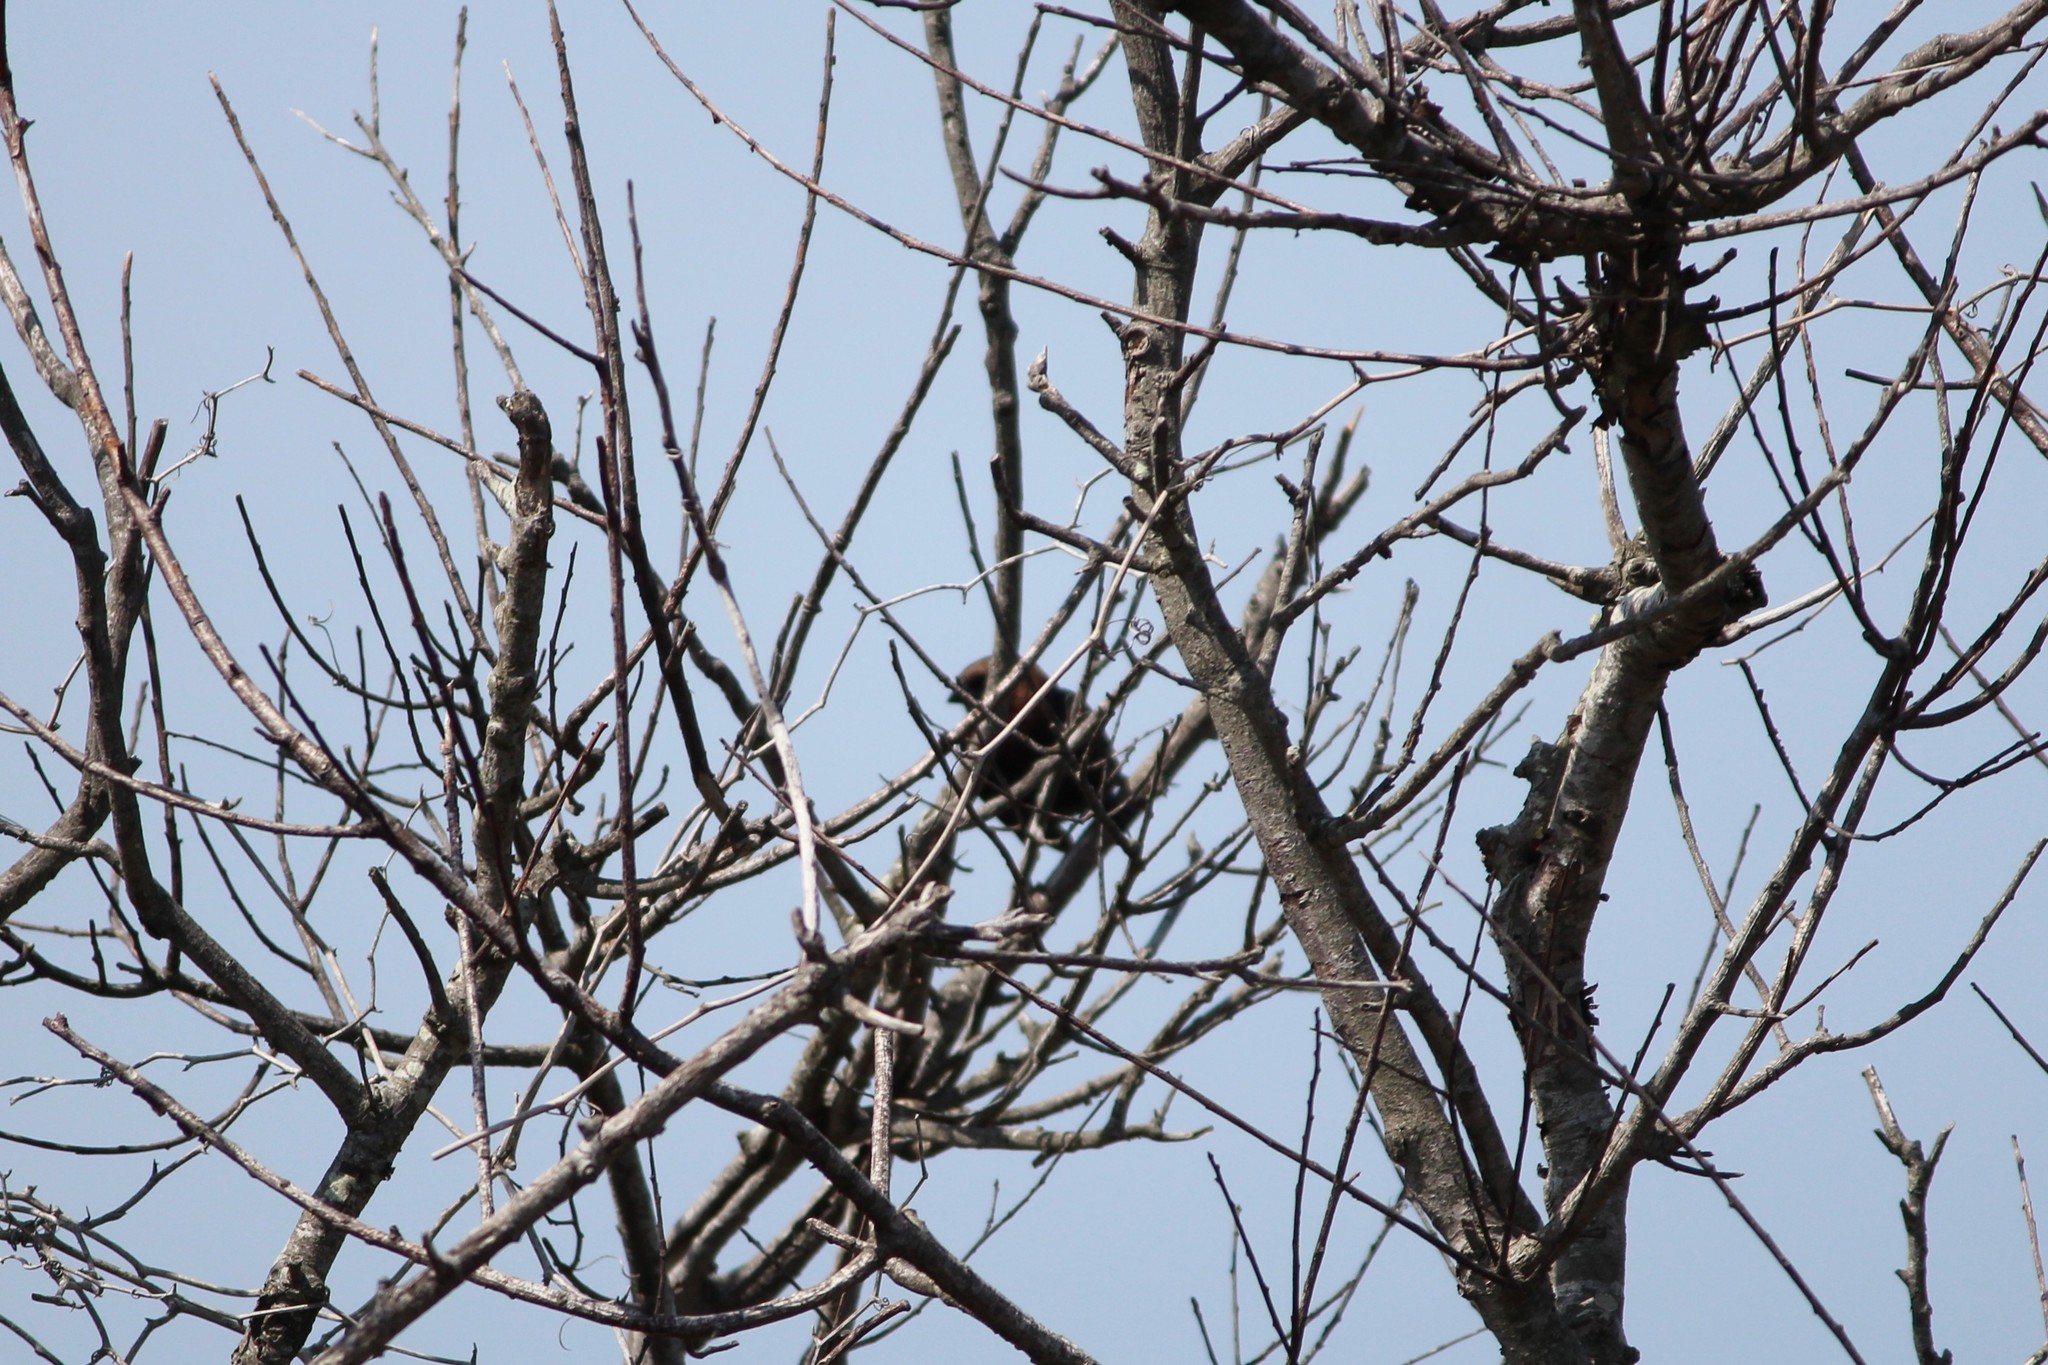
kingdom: Animalia
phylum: Chordata
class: Aves
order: Passeriformes
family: Icteridae
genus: Molothrus
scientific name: Molothrus ater
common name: Brown-headed cowbird
